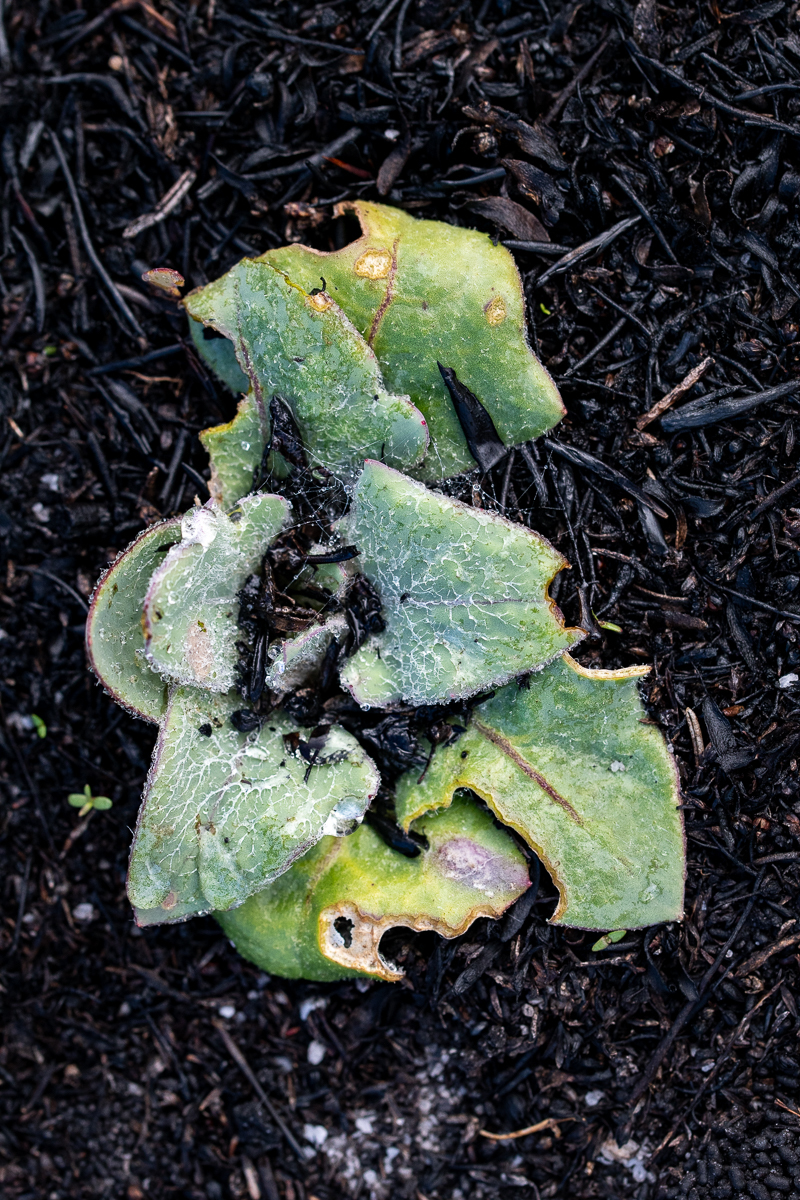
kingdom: Plantae
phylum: Tracheophyta
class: Magnoliopsida
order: Asterales
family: Asteraceae
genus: Mairia
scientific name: Mairia coriacea
